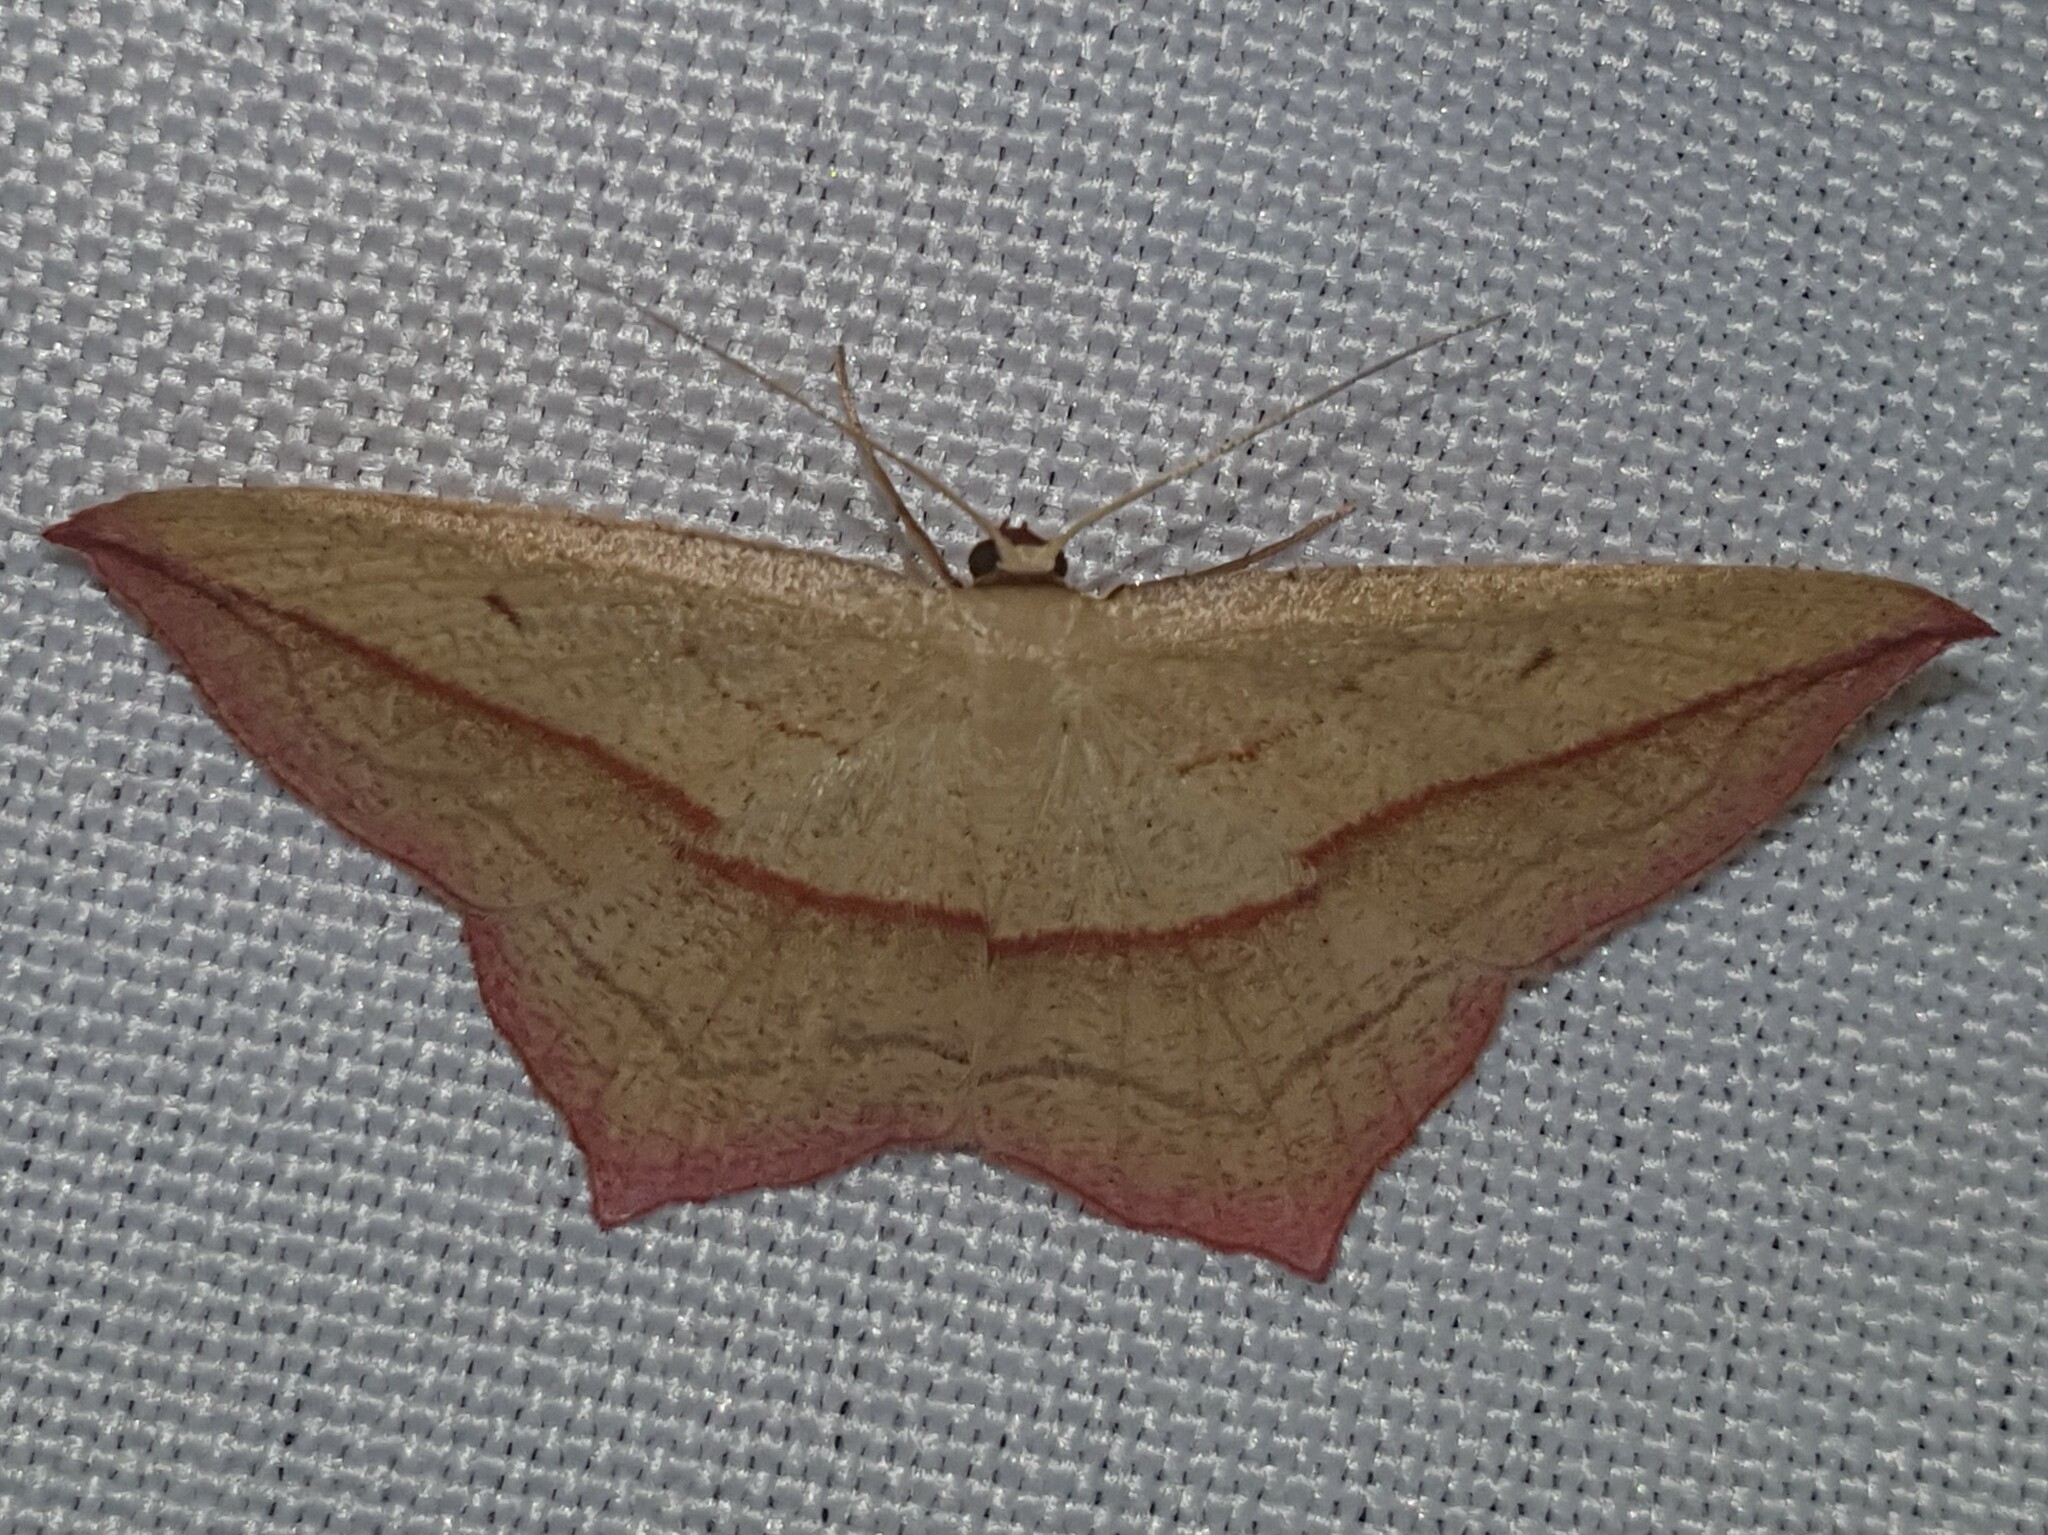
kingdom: Animalia
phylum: Arthropoda
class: Insecta
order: Lepidoptera
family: Geometridae
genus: Timandra
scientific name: Timandra comae
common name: Blood-vein
